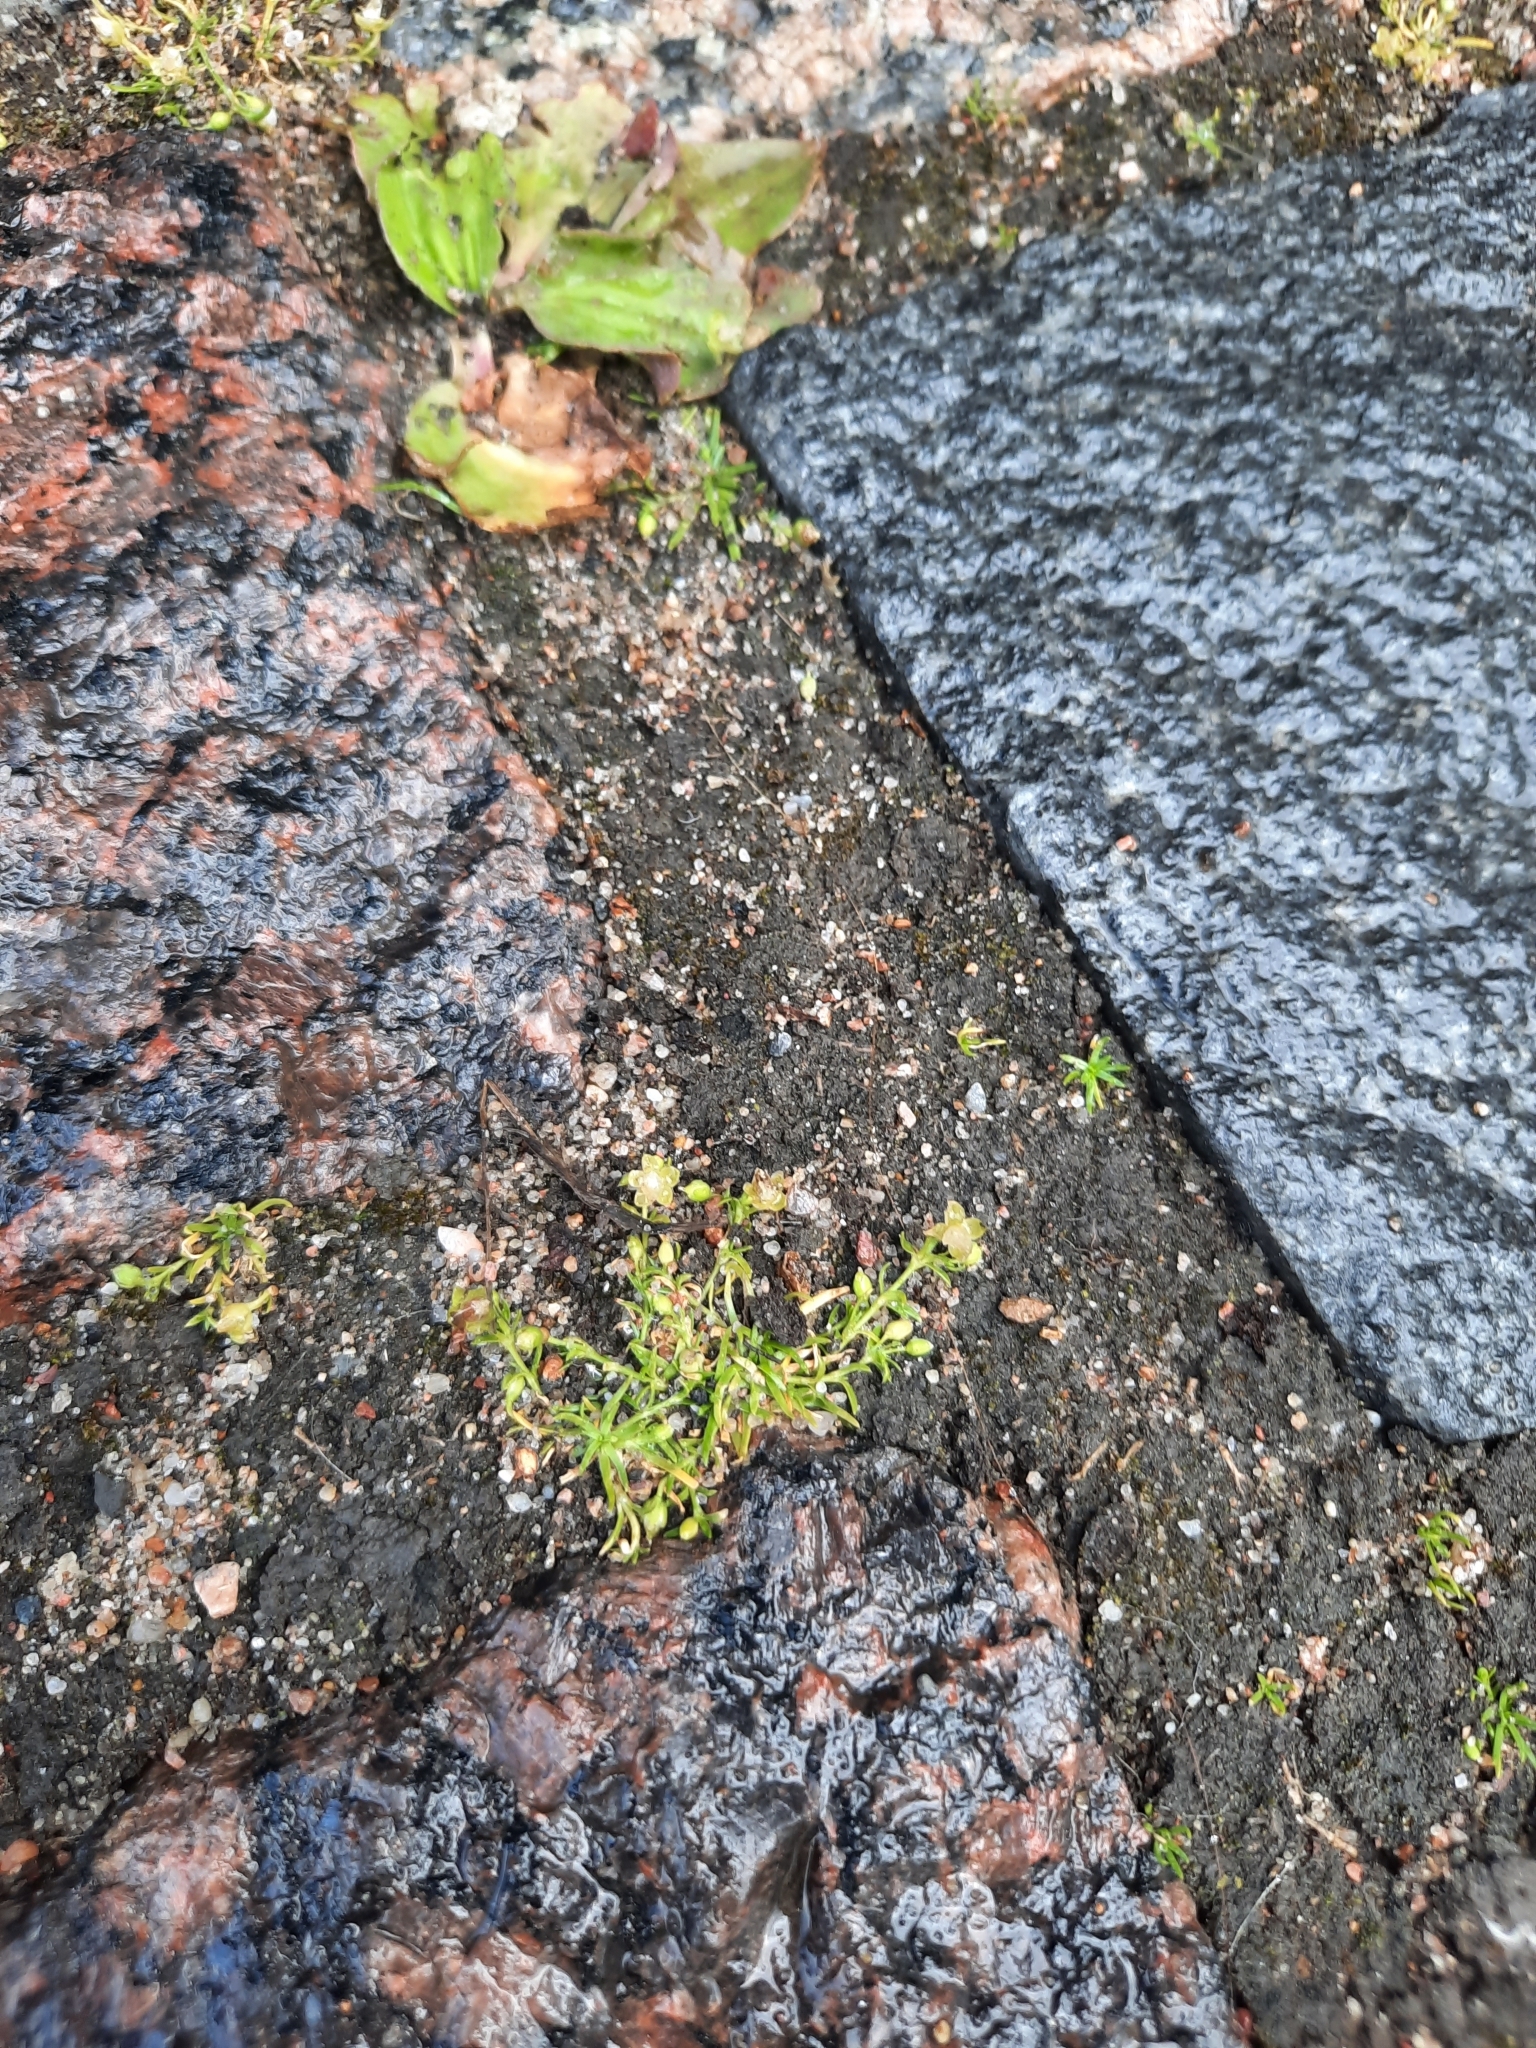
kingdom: Plantae
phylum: Tracheophyta
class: Magnoliopsida
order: Caryophyllales
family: Caryophyllaceae
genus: Sagina
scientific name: Sagina procumbens
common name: Procumbent pearlwort
